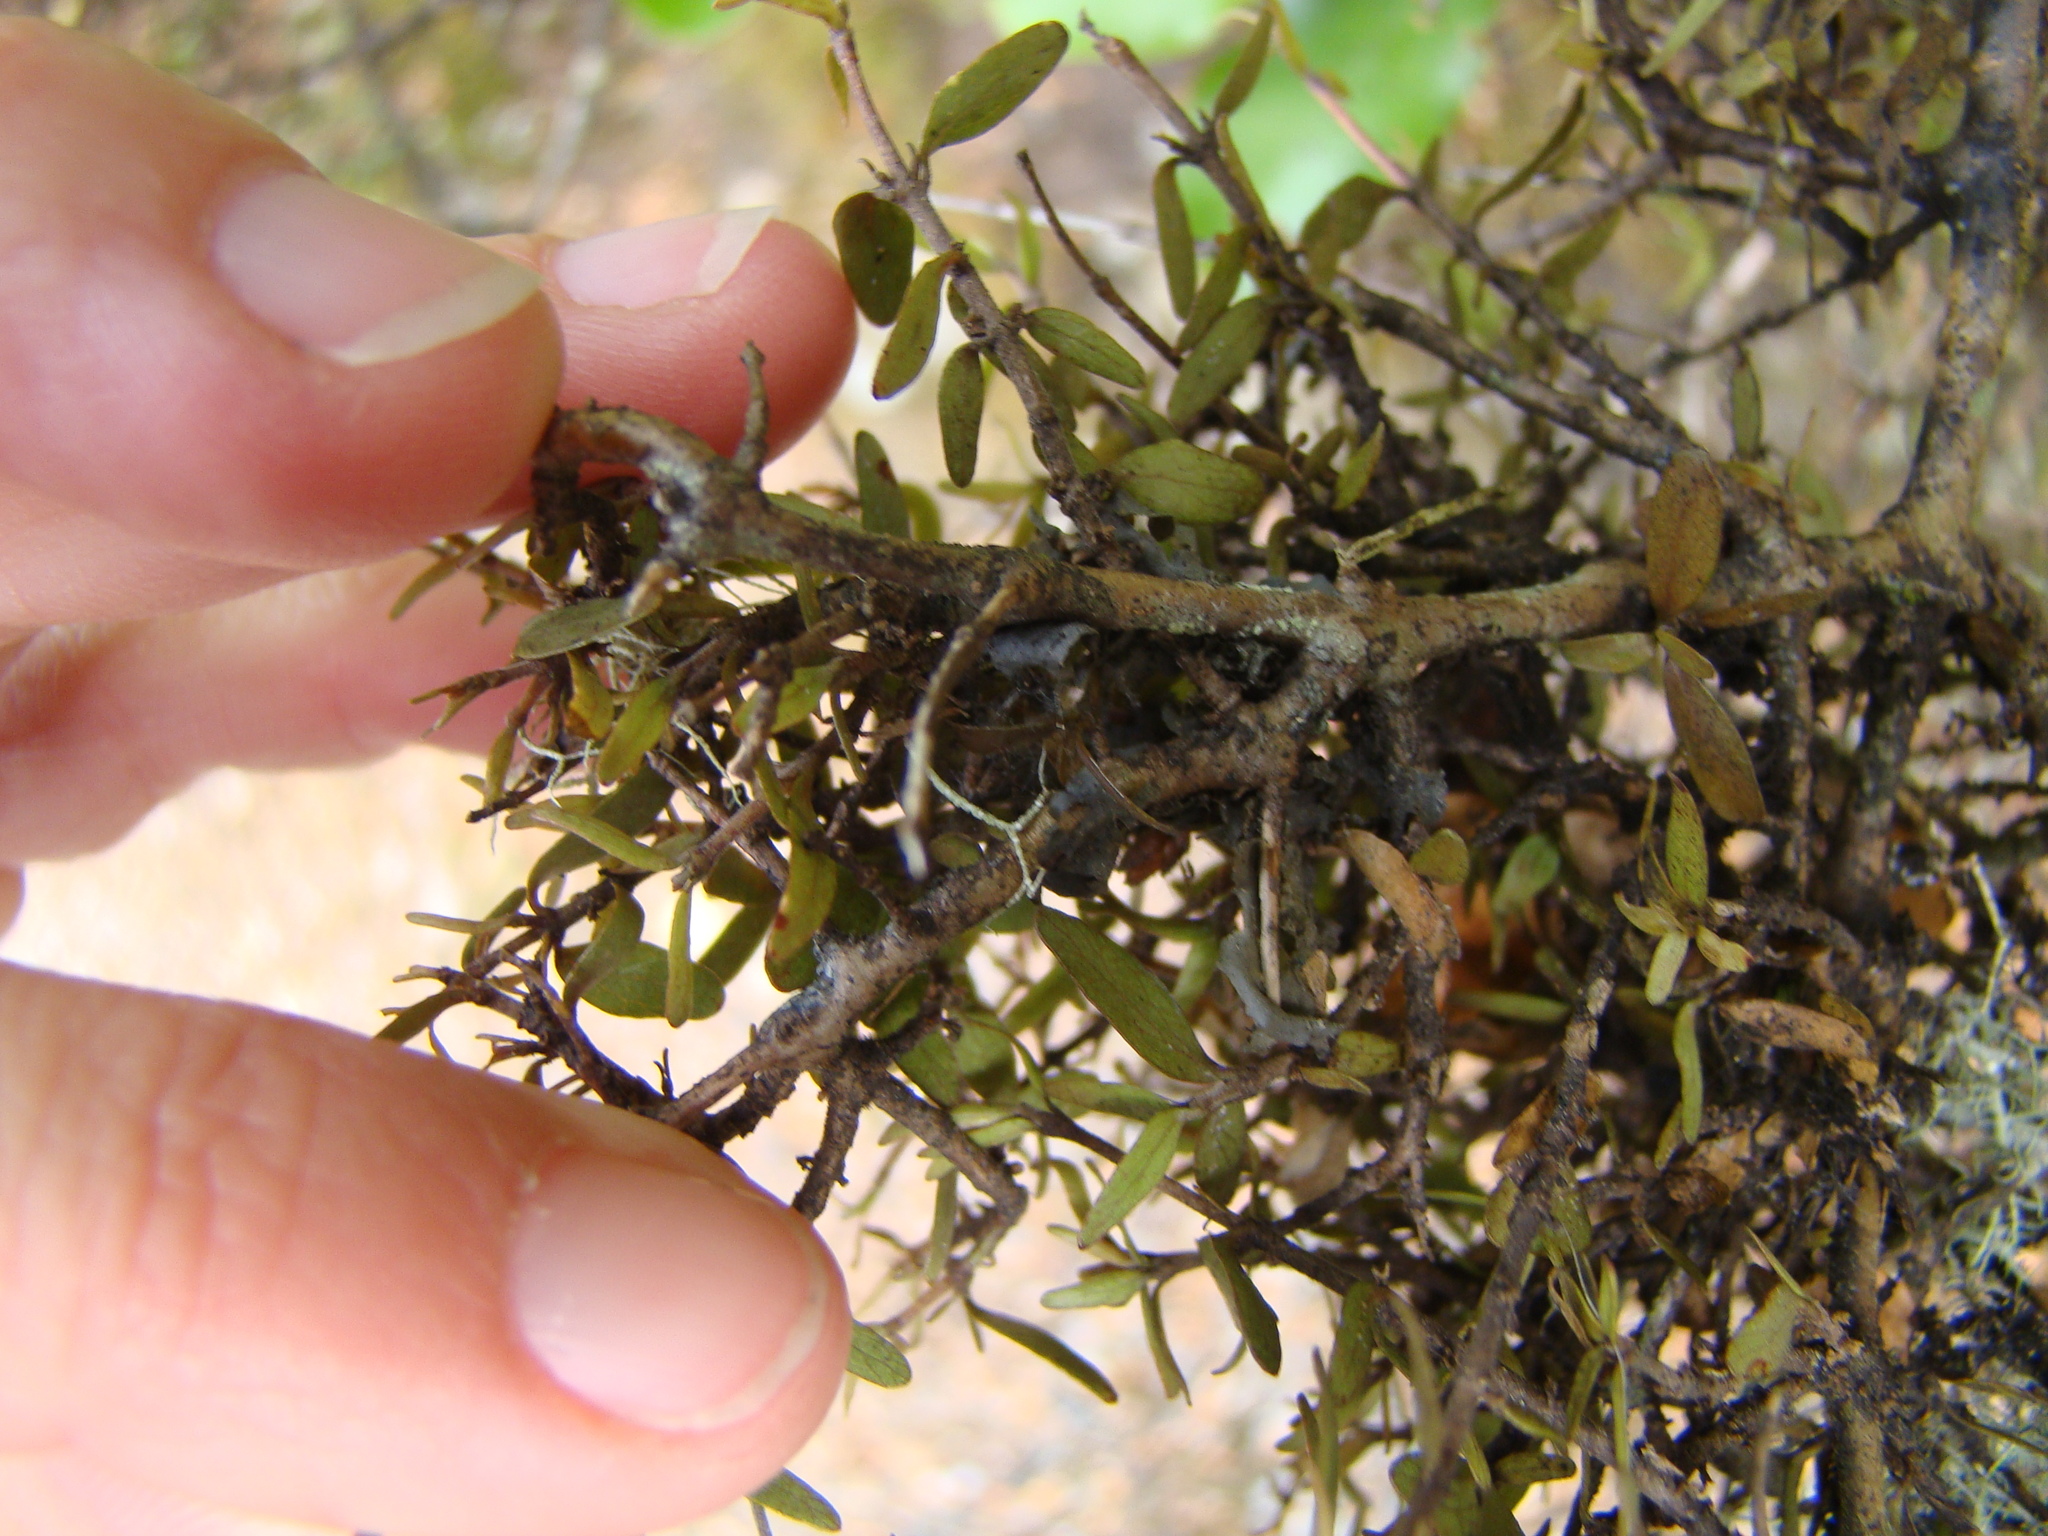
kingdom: Plantae
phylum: Tracheophyta
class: Magnoliopsida
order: Gentianales
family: Rubiaceae
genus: Coprosma
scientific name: Coprosma rhamnoides
